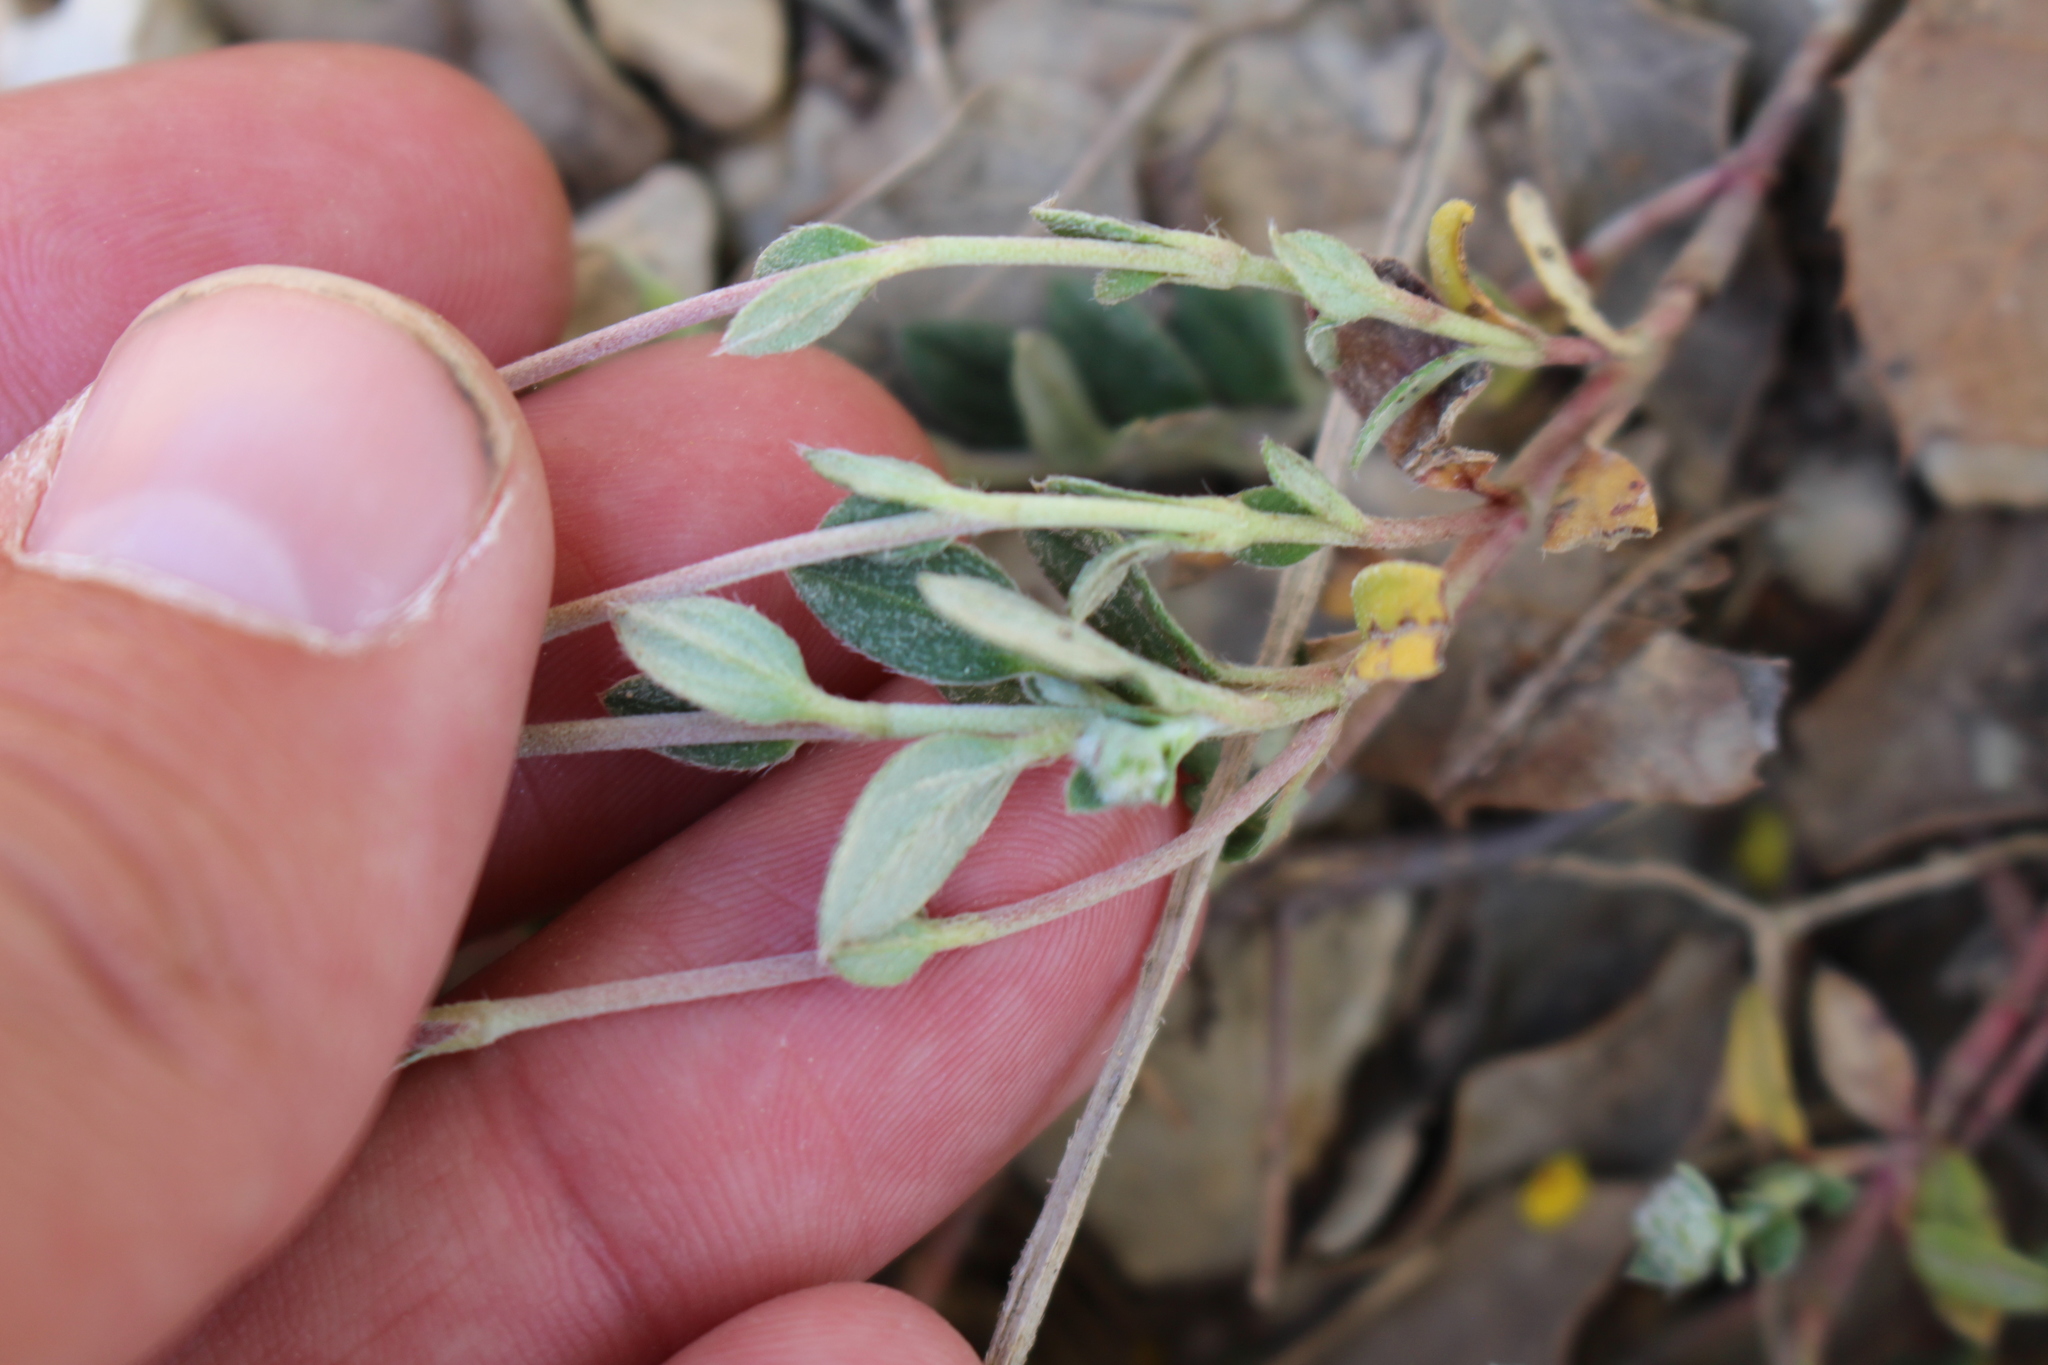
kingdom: Plantae
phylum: Tracheophyta
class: Magnoliopsida
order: Malvales
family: Cistaceae
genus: Helianthemum
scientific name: Helianthemum canum
